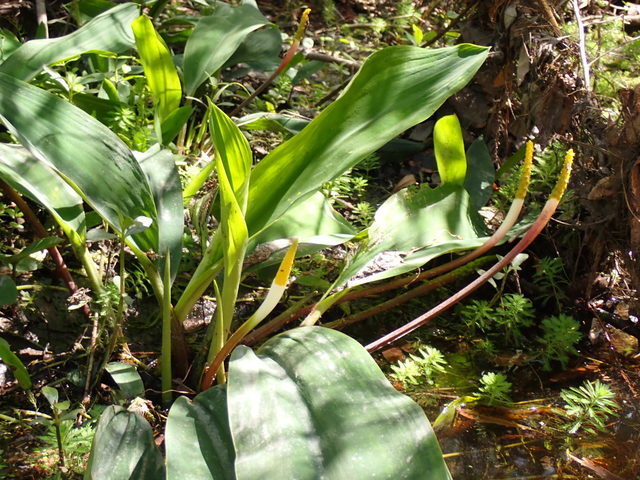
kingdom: Plantae
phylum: Tracheophyta
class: Liliopsida
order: Alismatales
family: Araceae
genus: Orontium
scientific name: Orontium aquaticum
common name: Golden-club
